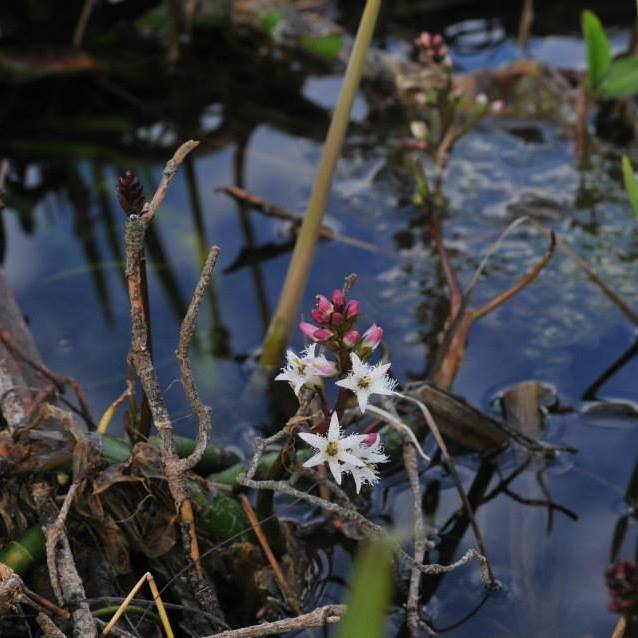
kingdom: Plantae
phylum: Tracheophyta
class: Magnoliopsida
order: Asterales
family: Menyanthaceae
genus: Menyanthes
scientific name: Menyanthes trifoliata
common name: Bogbean
